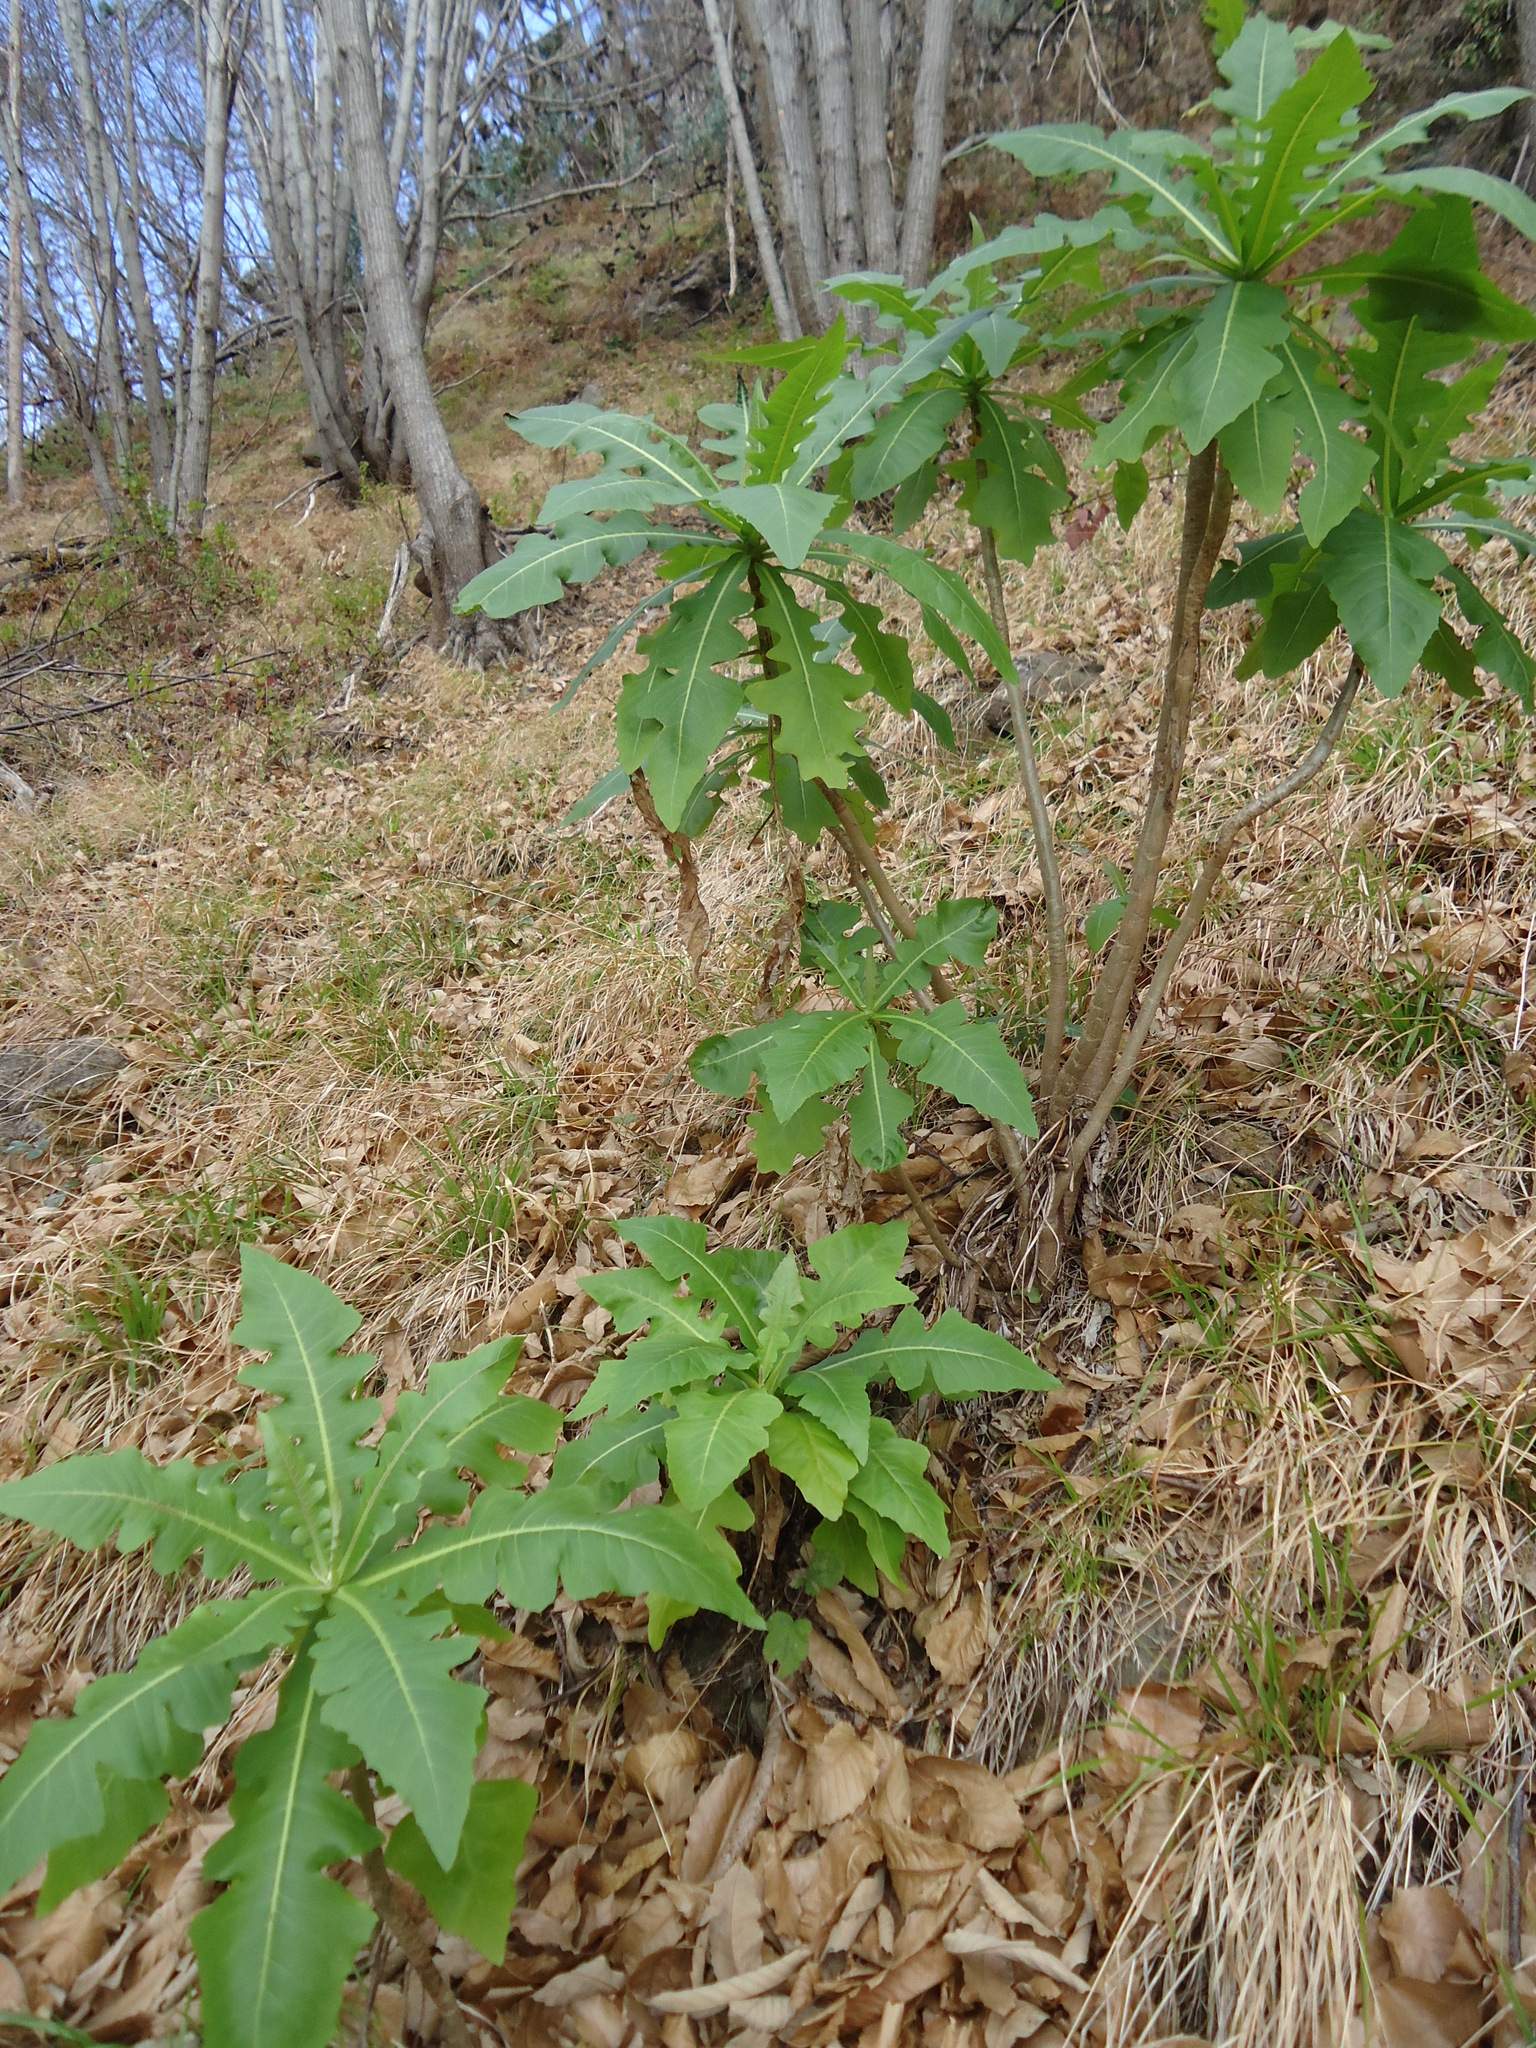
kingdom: Plantae
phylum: Tracheophyta
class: Magnoliopsida
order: Asterales
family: Asteraceae
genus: Sonchus
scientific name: Sonchus fruticosus
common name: Shrubby sow-thistle
